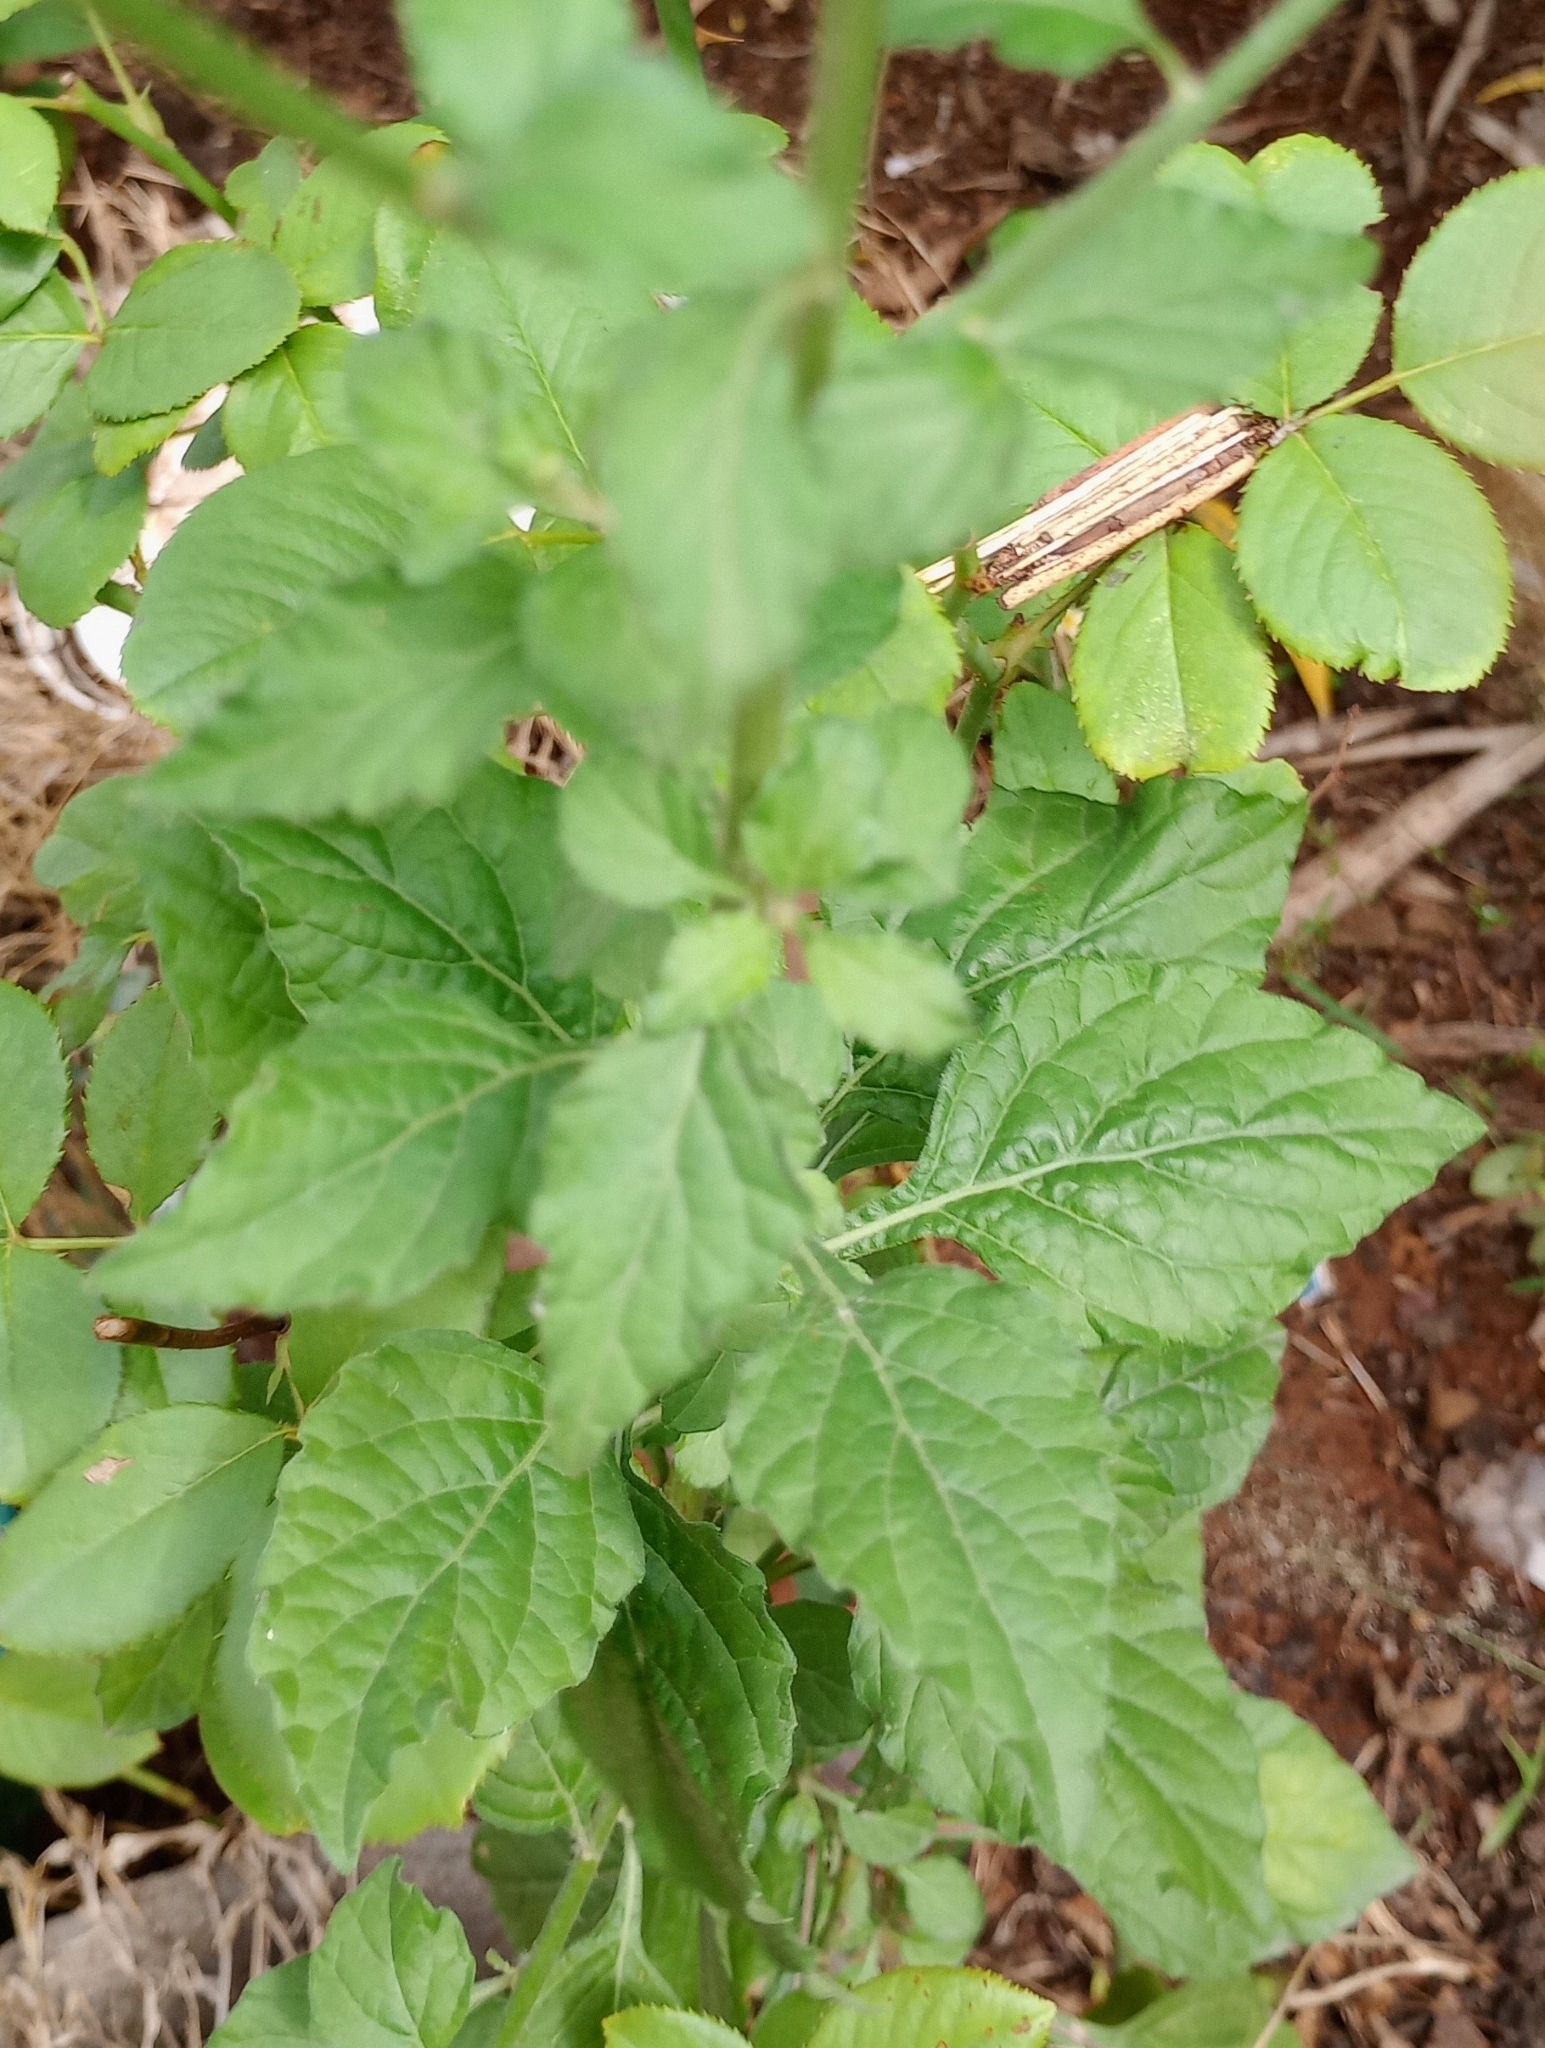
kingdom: Plantae
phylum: Tracheophyta
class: Magnoliopsida
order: Asterales
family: Asteraceae
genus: Cyanthillium
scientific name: Cyanthillium cinereum
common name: Little ironweed
